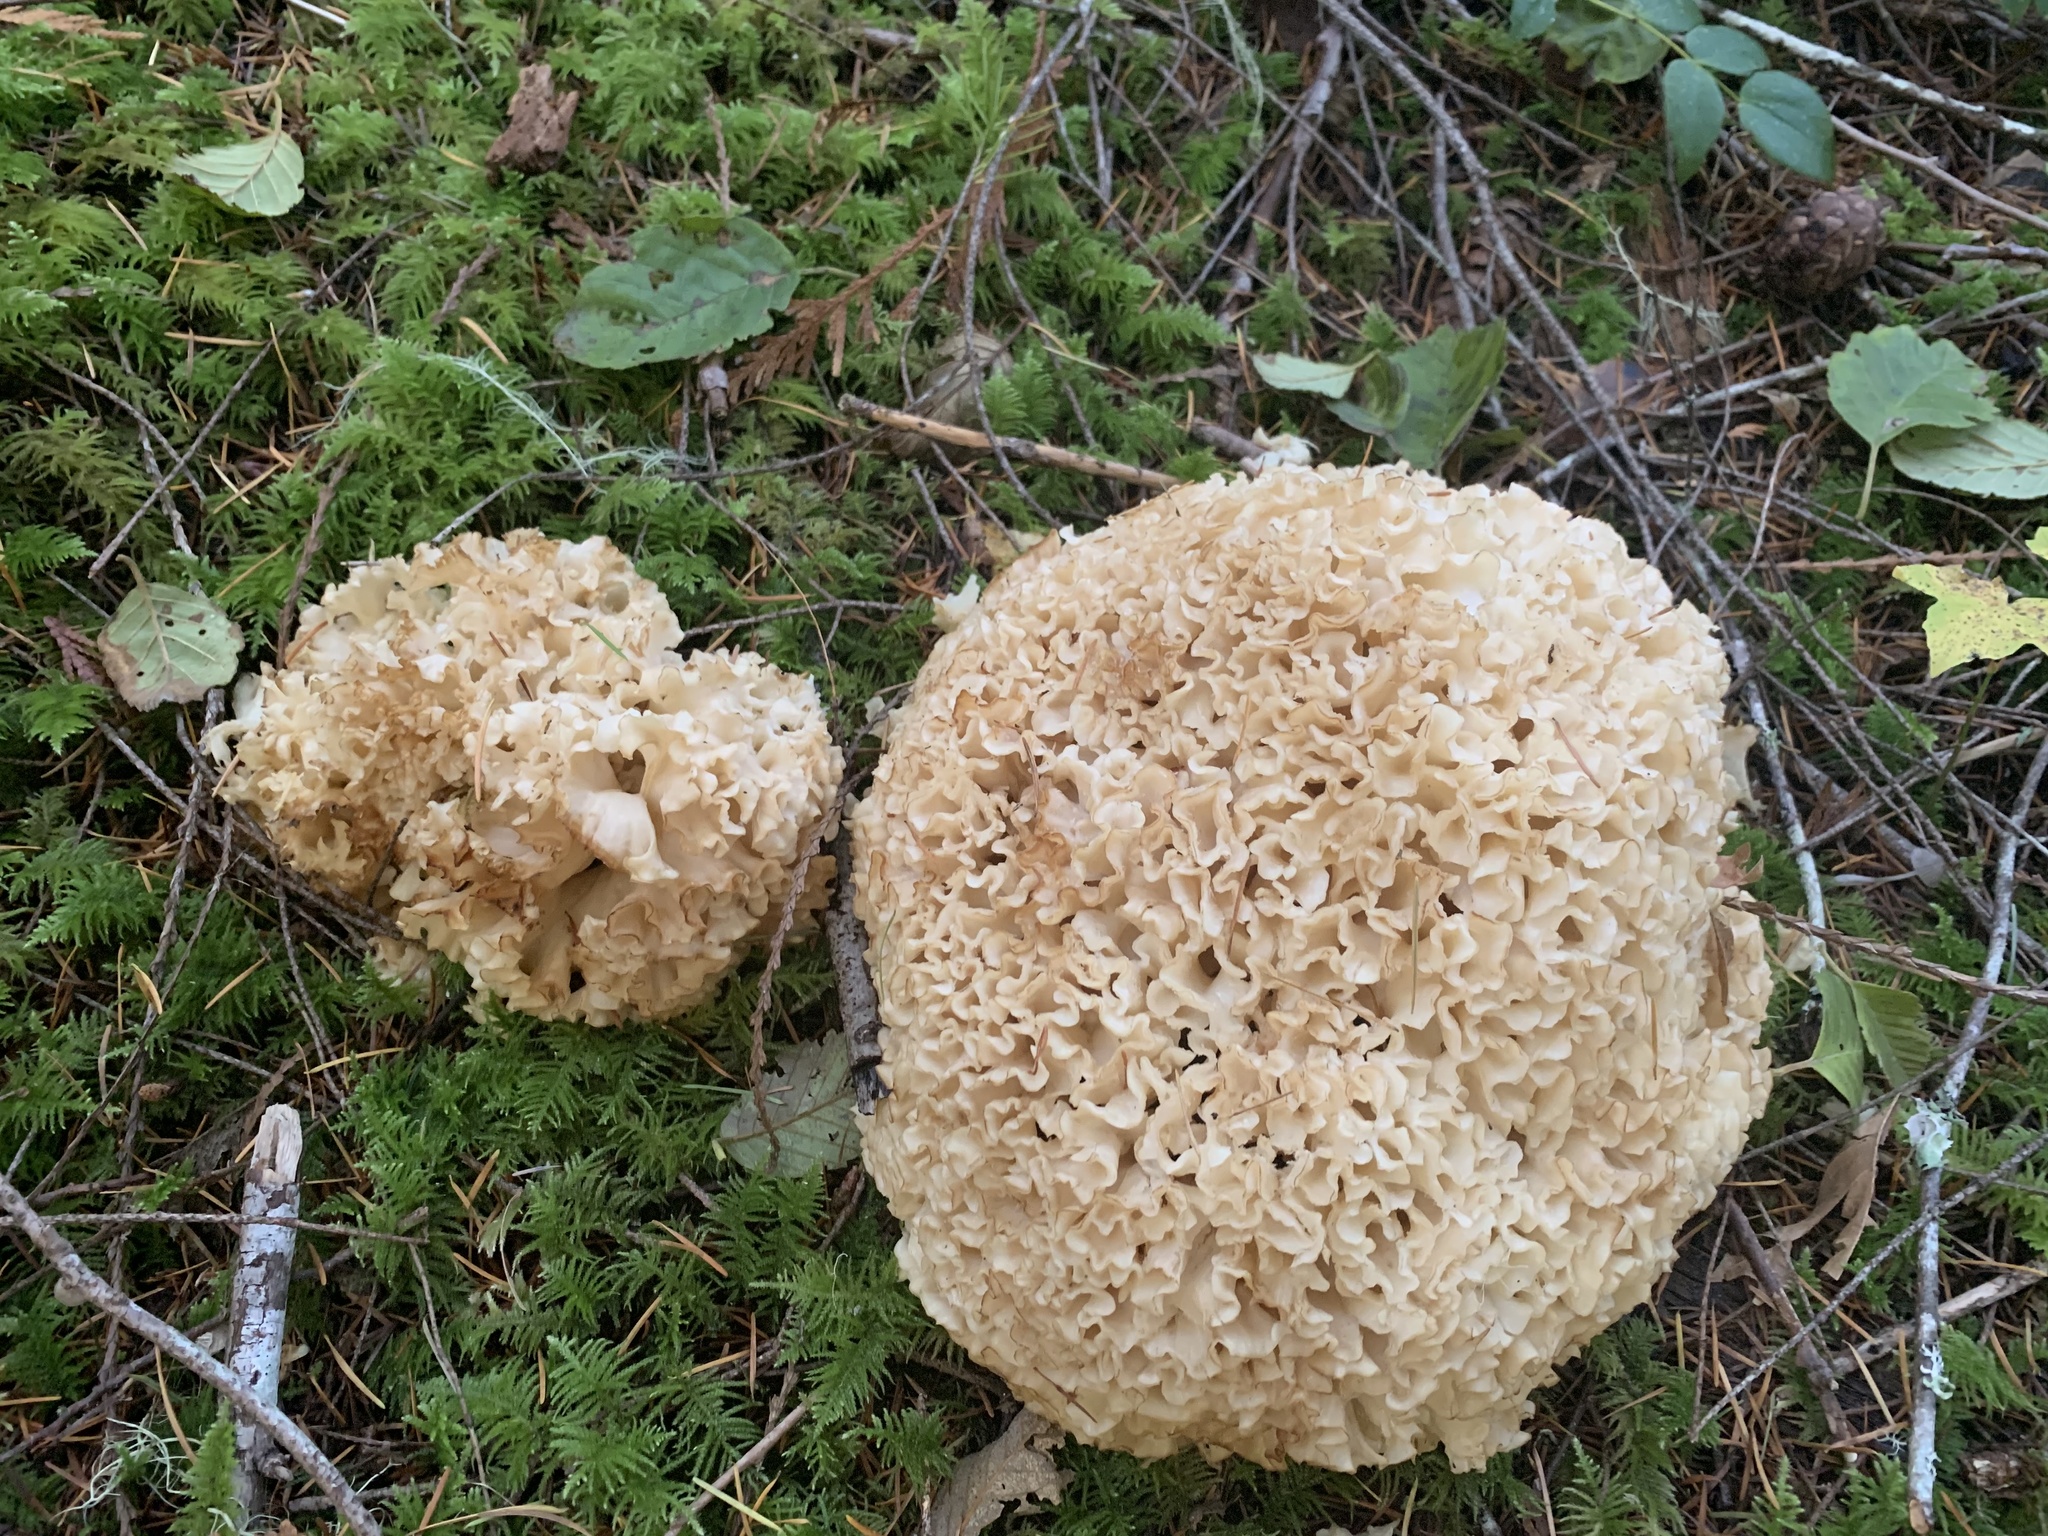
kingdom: Fungi
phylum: Basidiomycota
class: Agaricomycetes
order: Polyporales
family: Sparassidaceae
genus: Sparassis
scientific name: Sparassis radicata
